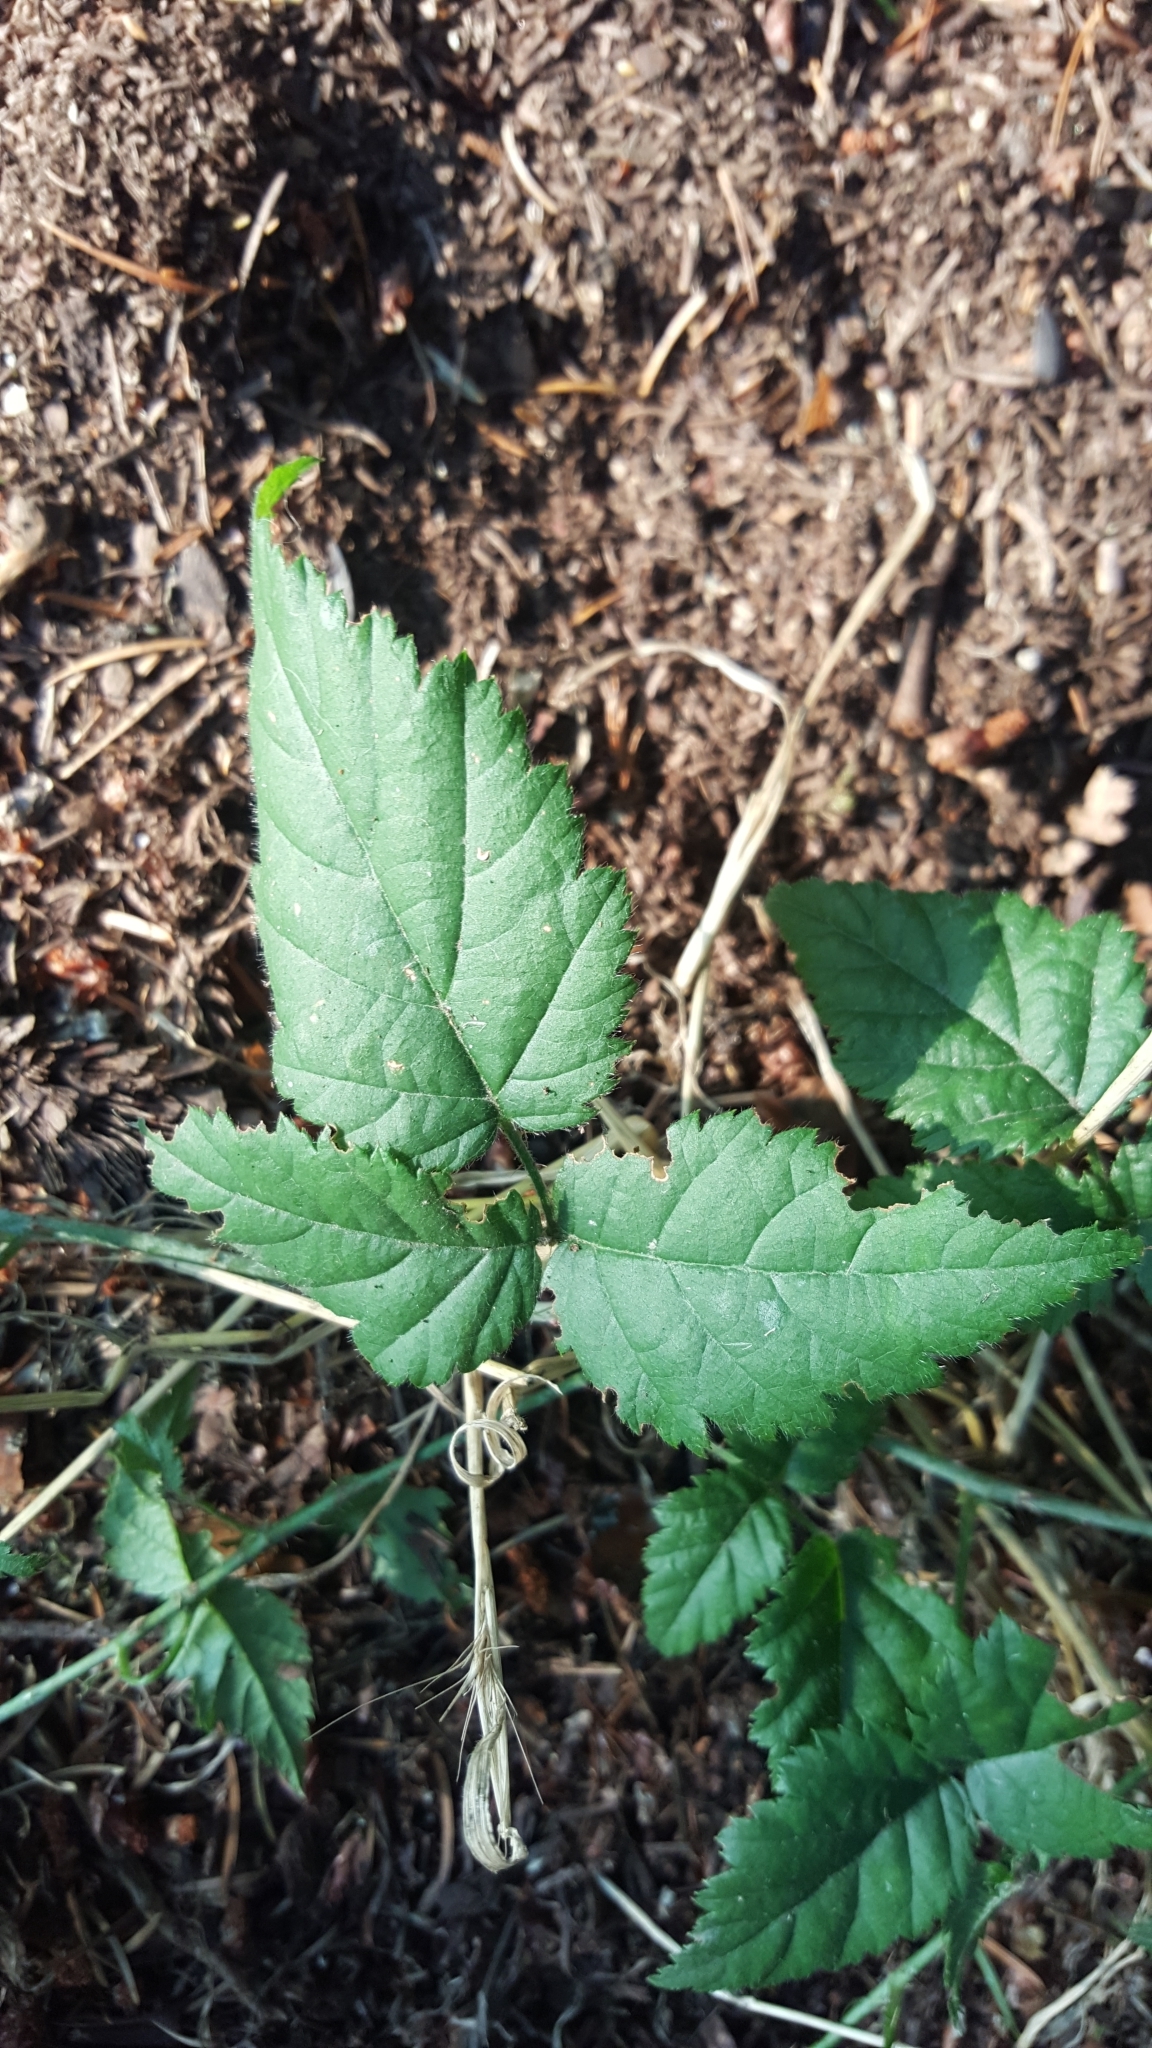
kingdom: Plantae
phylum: Tracheophyta
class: Magnoliopsida
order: Rosales
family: Rosaceae
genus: Rubus
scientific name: Rubus ursinus
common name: Pacific blackberry
